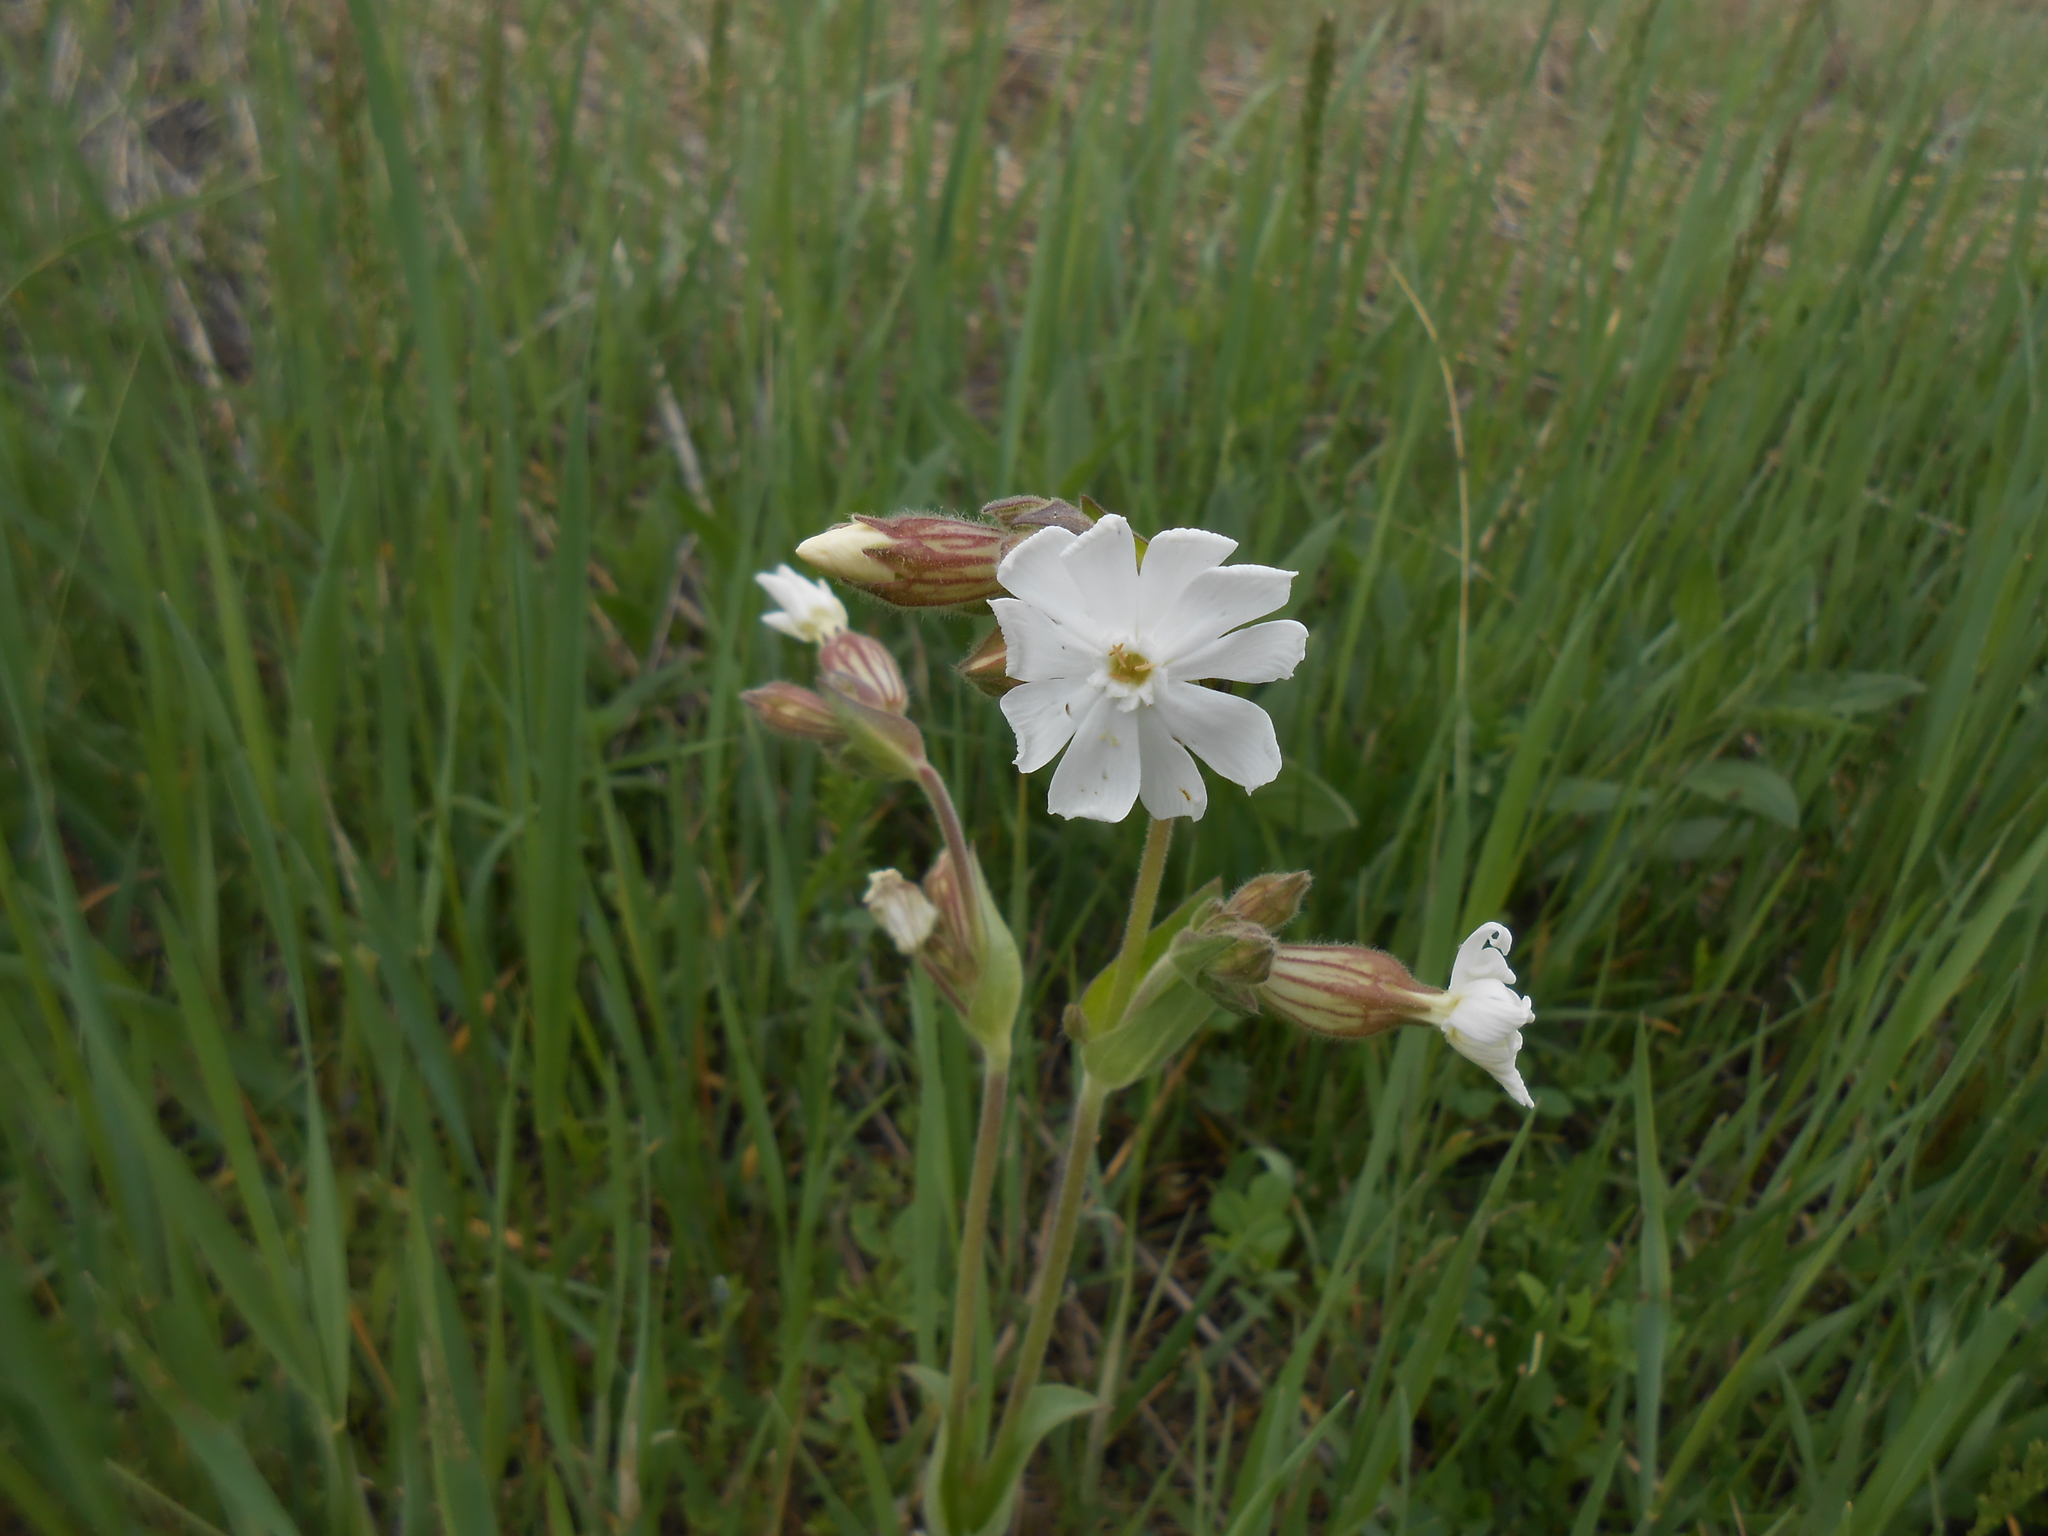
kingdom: Plantae
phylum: Tracheophyta
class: Magnoliopsida
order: Caryophyllales
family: Caryophyllaceae
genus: Silene
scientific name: Silene latifolia
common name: White campion
